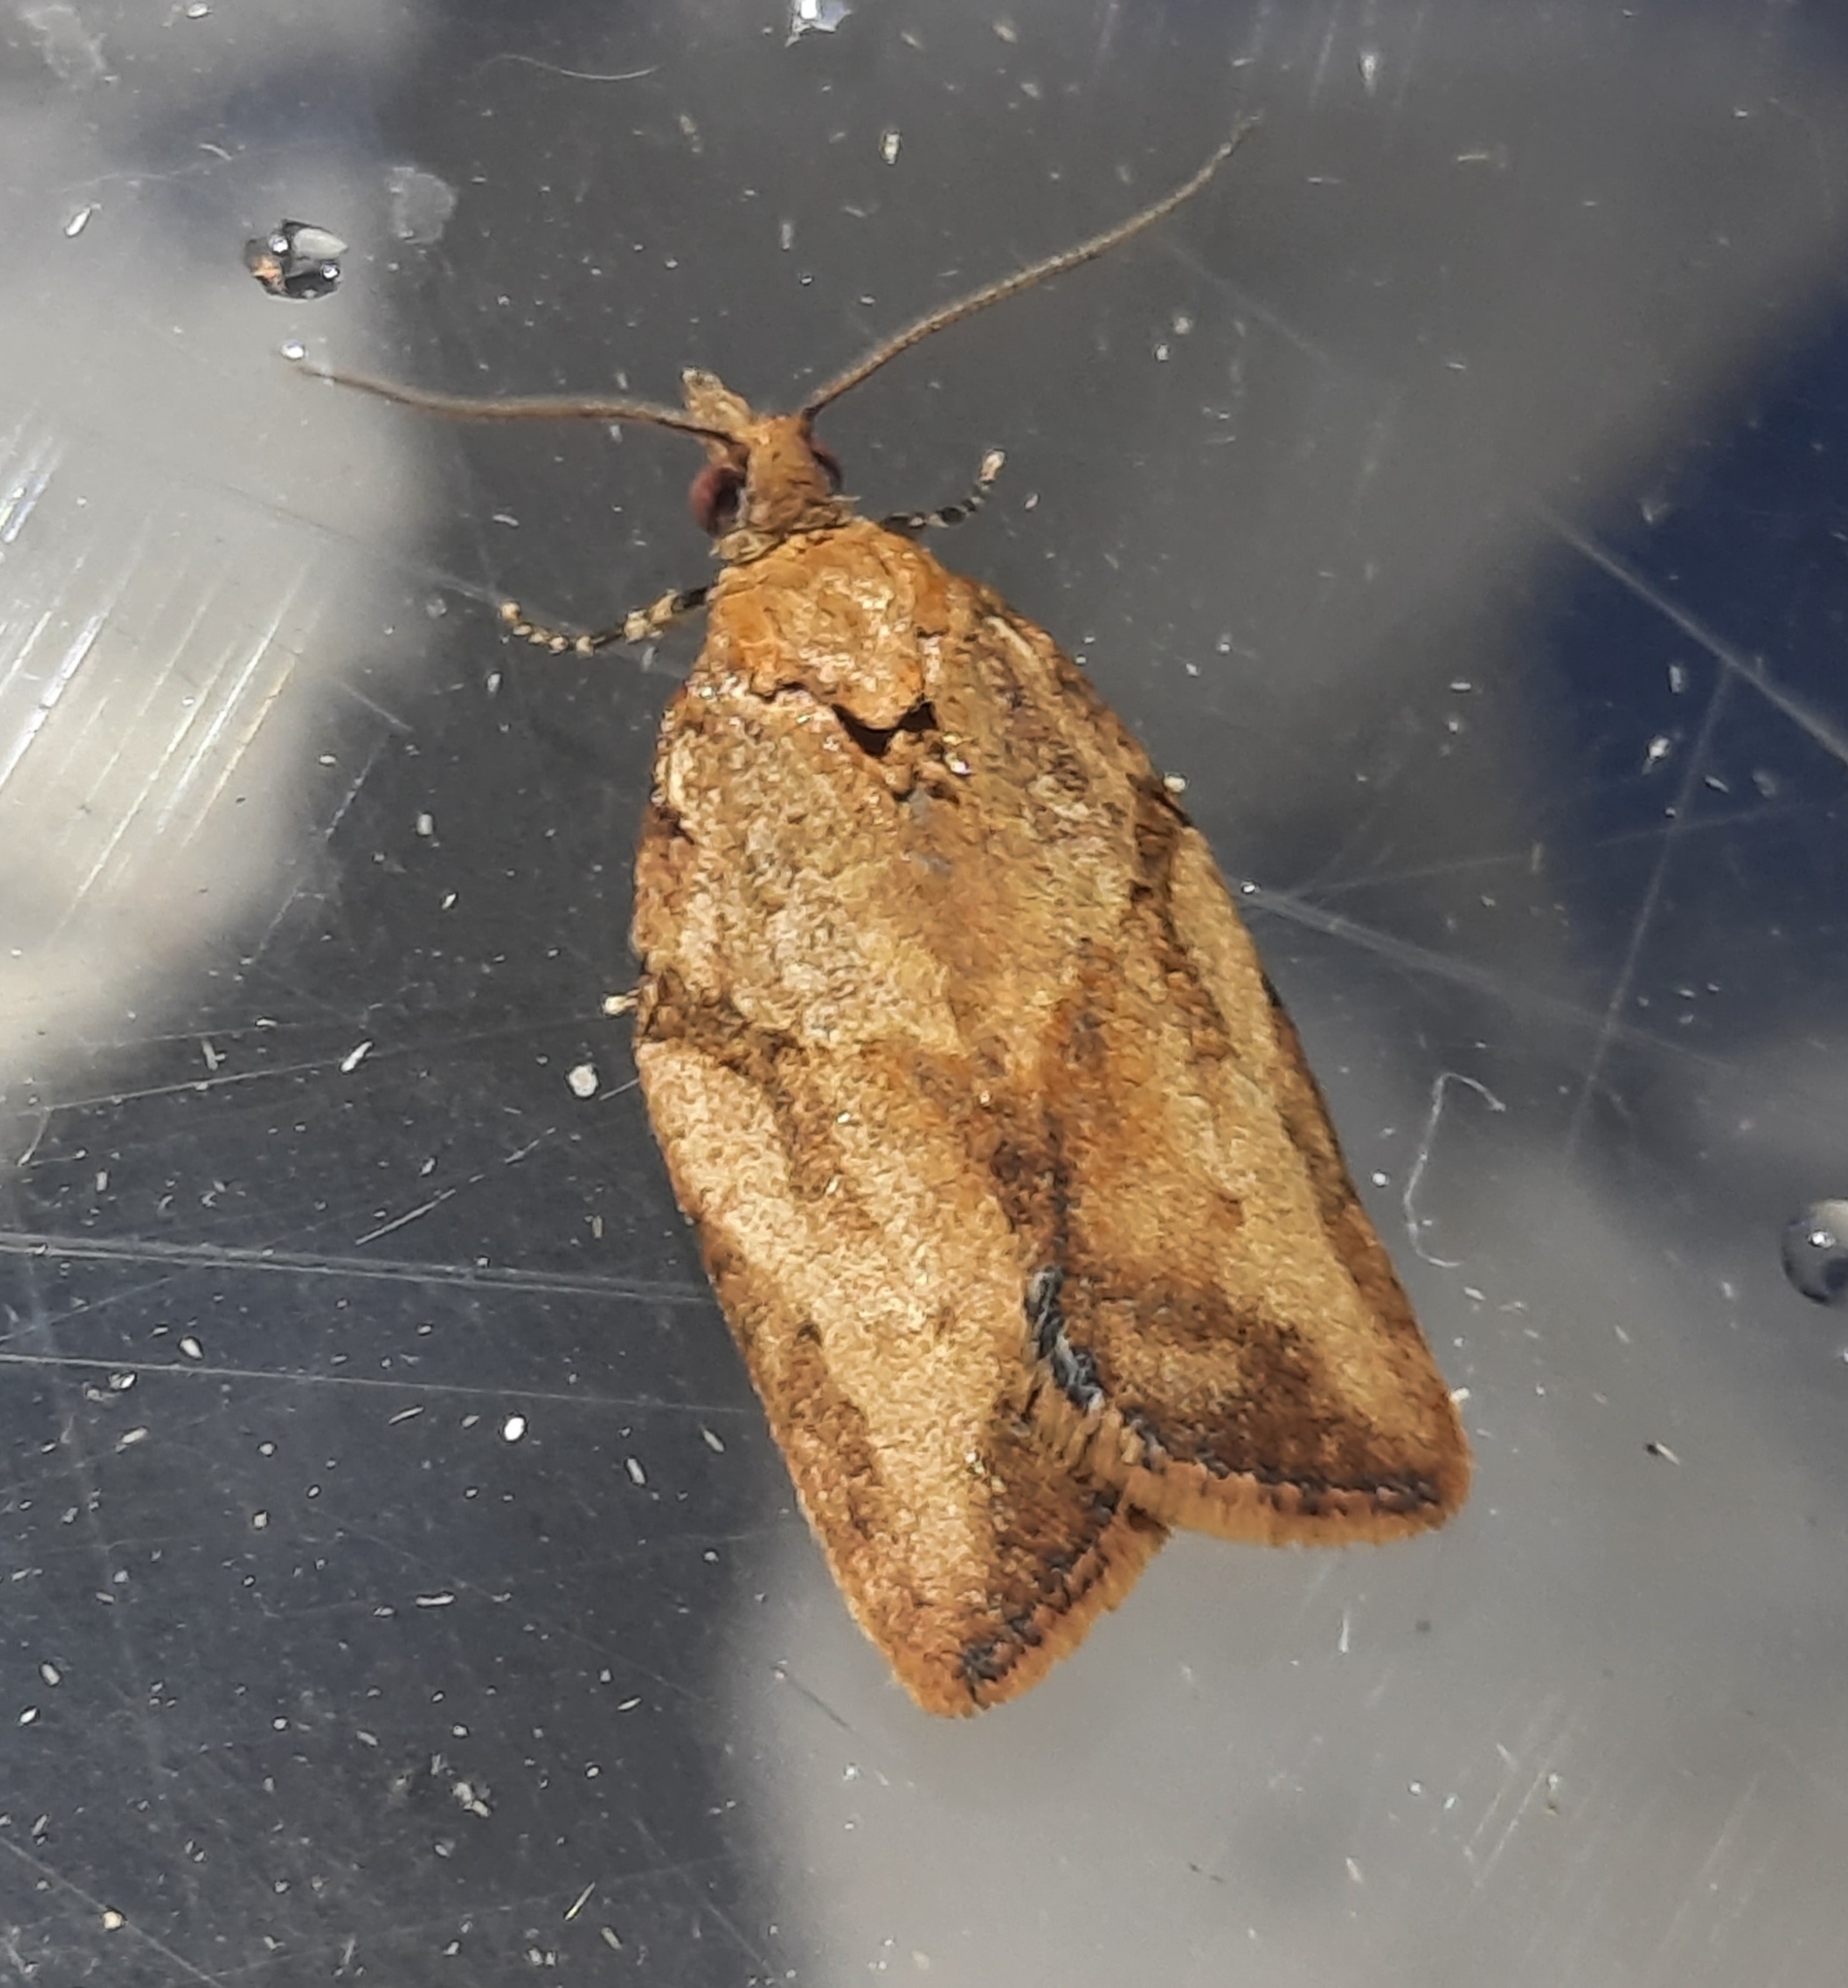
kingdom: Animalia
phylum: Arthropoda
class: Insecta
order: Lepidoptera
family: Tortricidae
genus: Epiphyas
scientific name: Epiphyas postvittana
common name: Light brown apple moth
